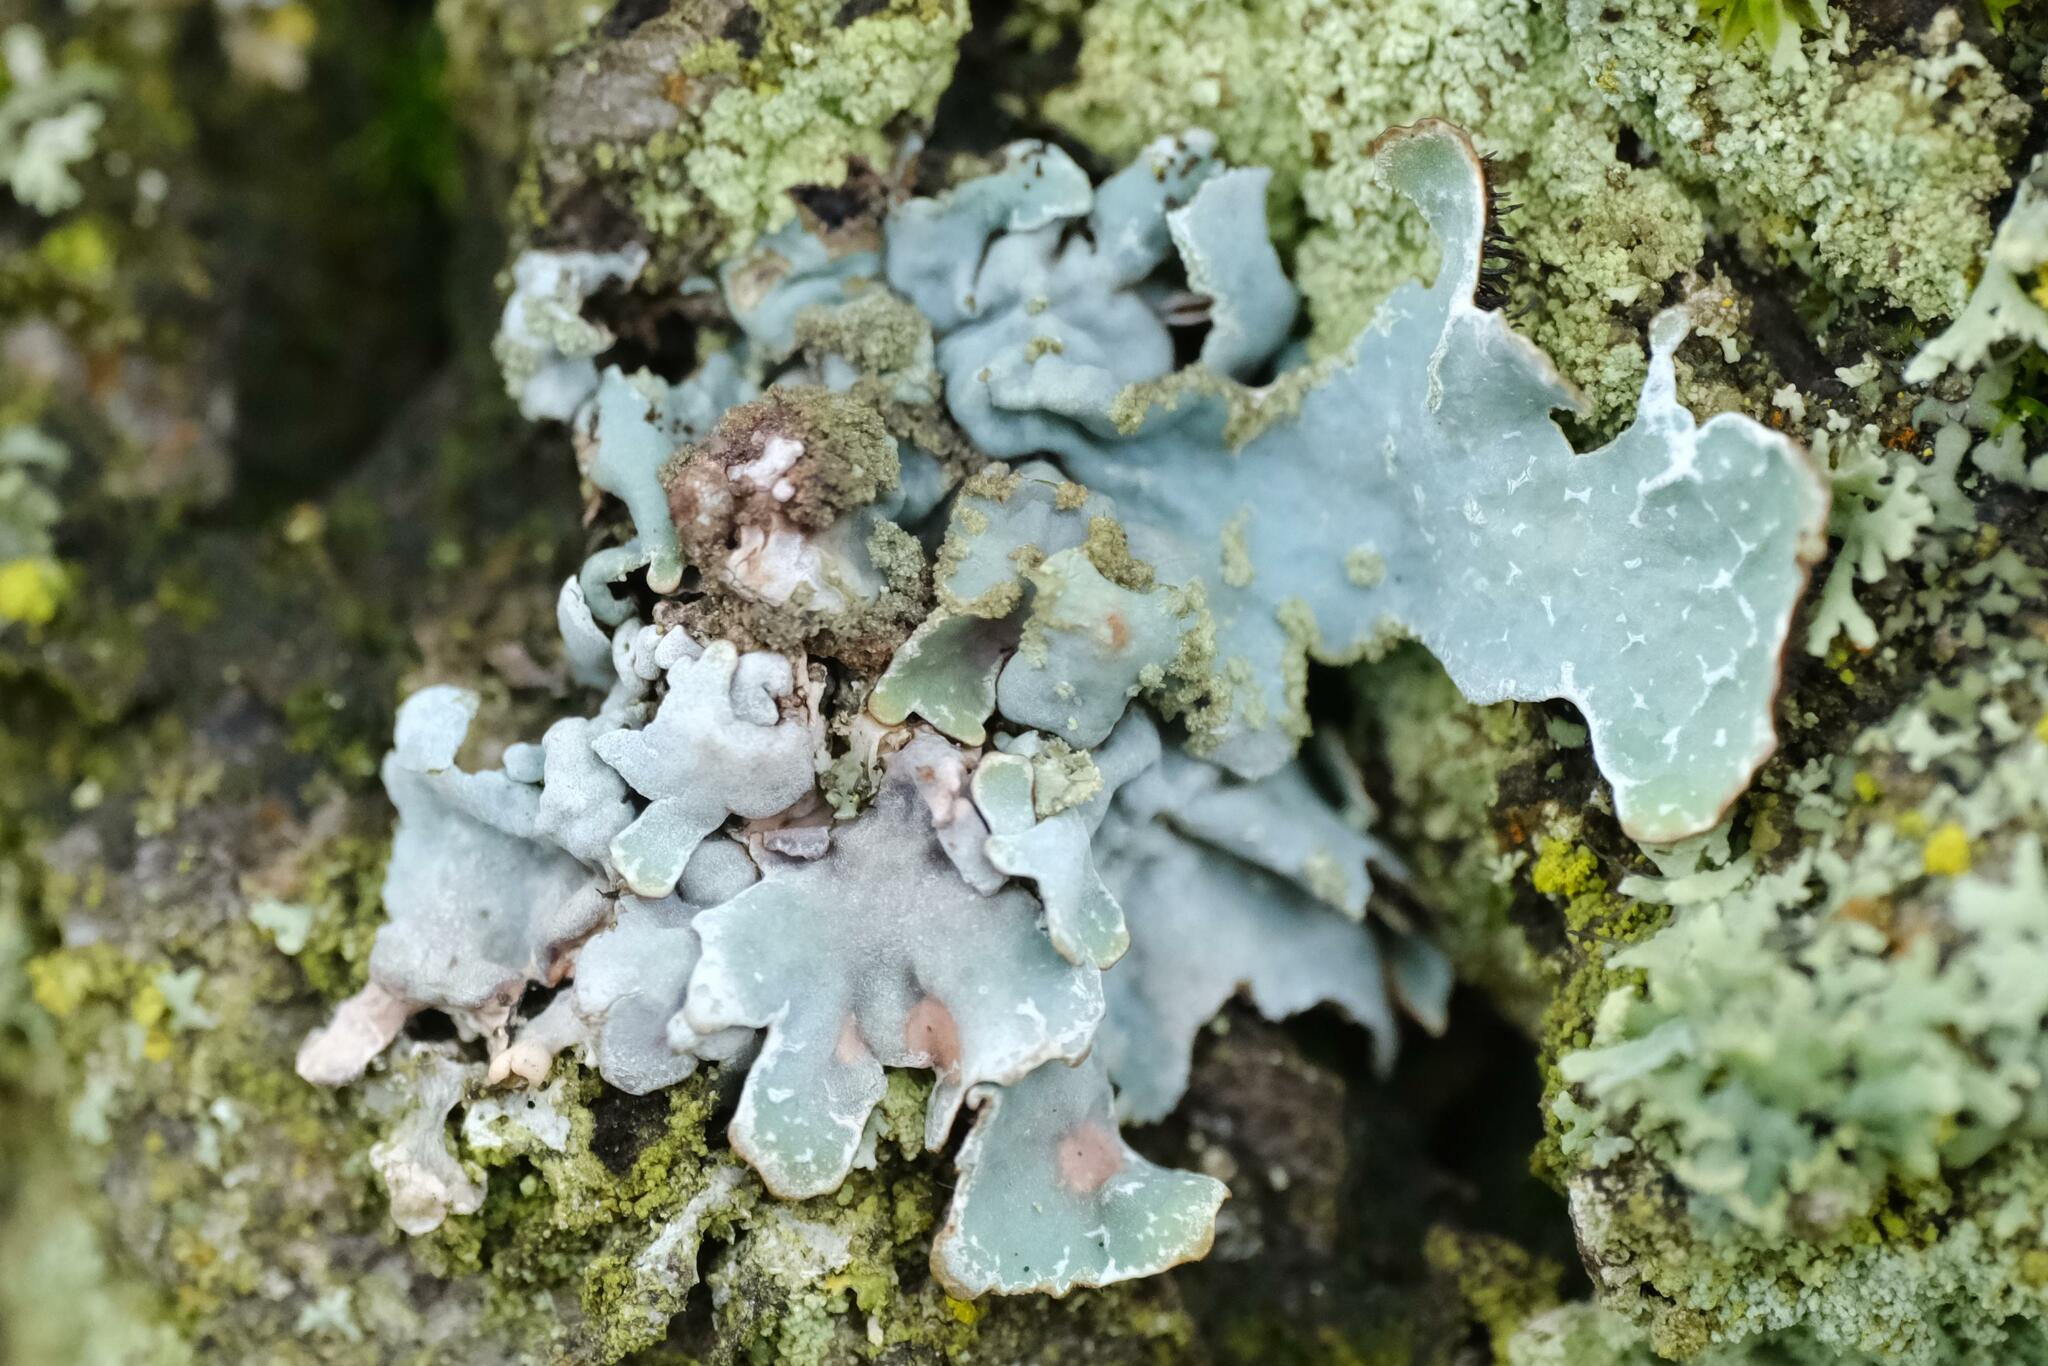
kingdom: Fungi
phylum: Ascomycota
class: Lecanoromycetes
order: Lecanorales
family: Parmeliaceae
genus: Parmelia
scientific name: Parmelia sulcata
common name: Netted shield lichen
